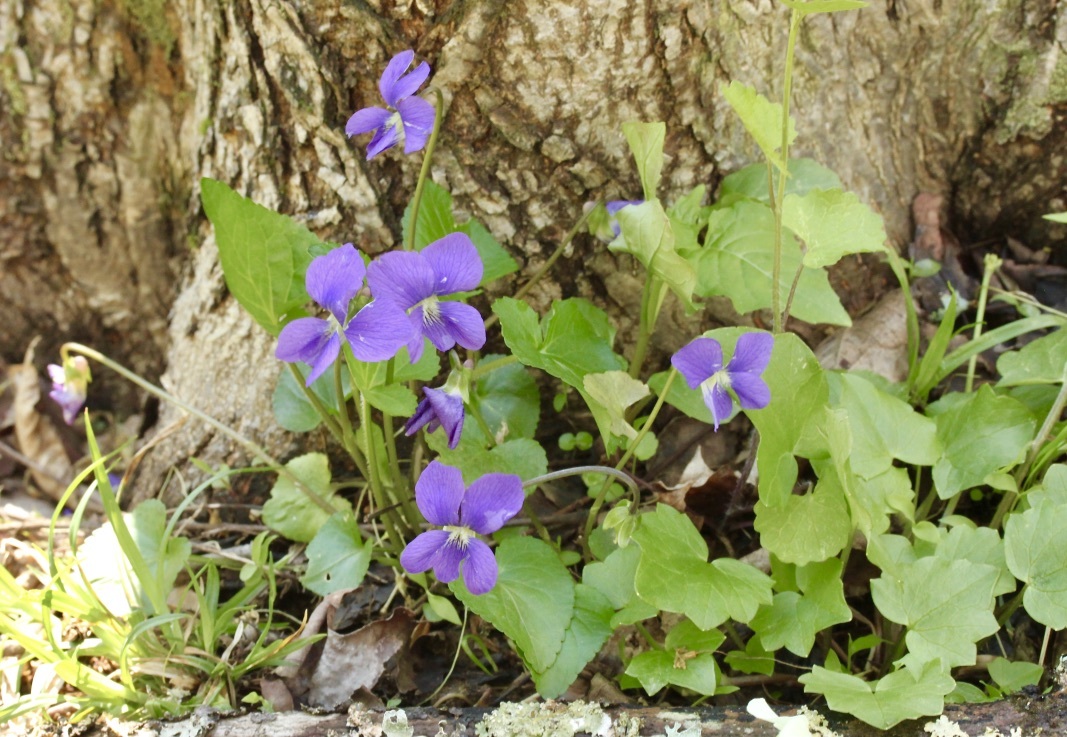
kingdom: Plantae
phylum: Tracheophyta
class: Magnoliopsida
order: Malpighiales
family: Violaceae
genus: Viola
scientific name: Viola sororia
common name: Dooryard violet
